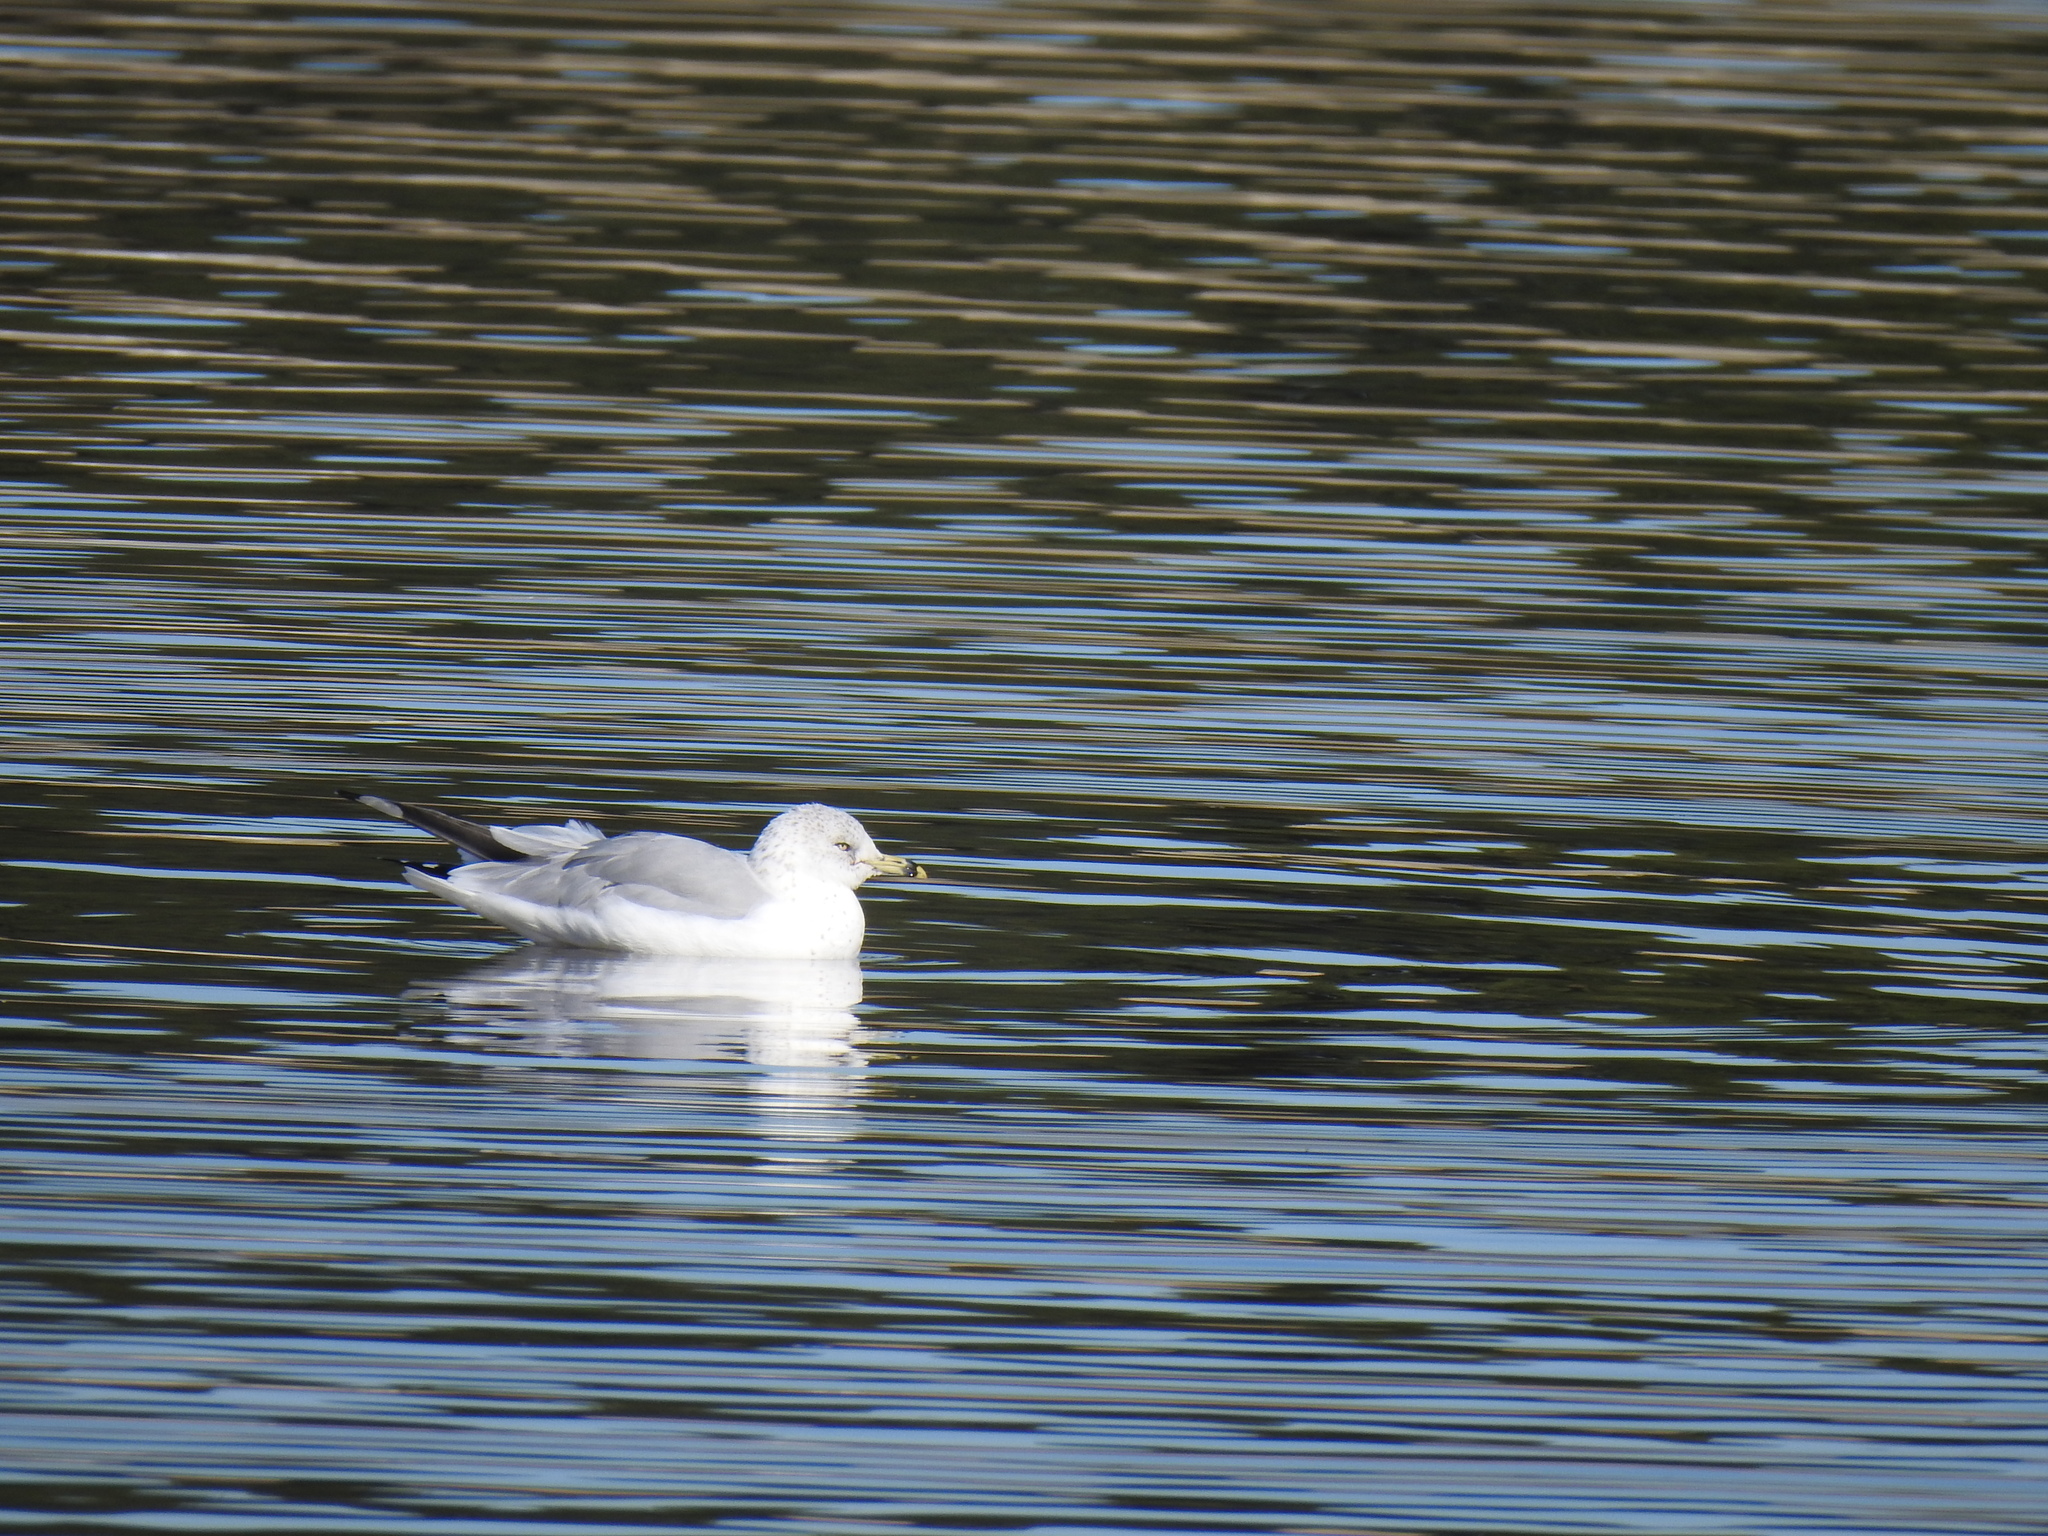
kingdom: Animalia
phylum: Chordata
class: Aves
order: Charadriiformes
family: Laridae
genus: Larus
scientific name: Larus delawarensis
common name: Ring-billed gull
